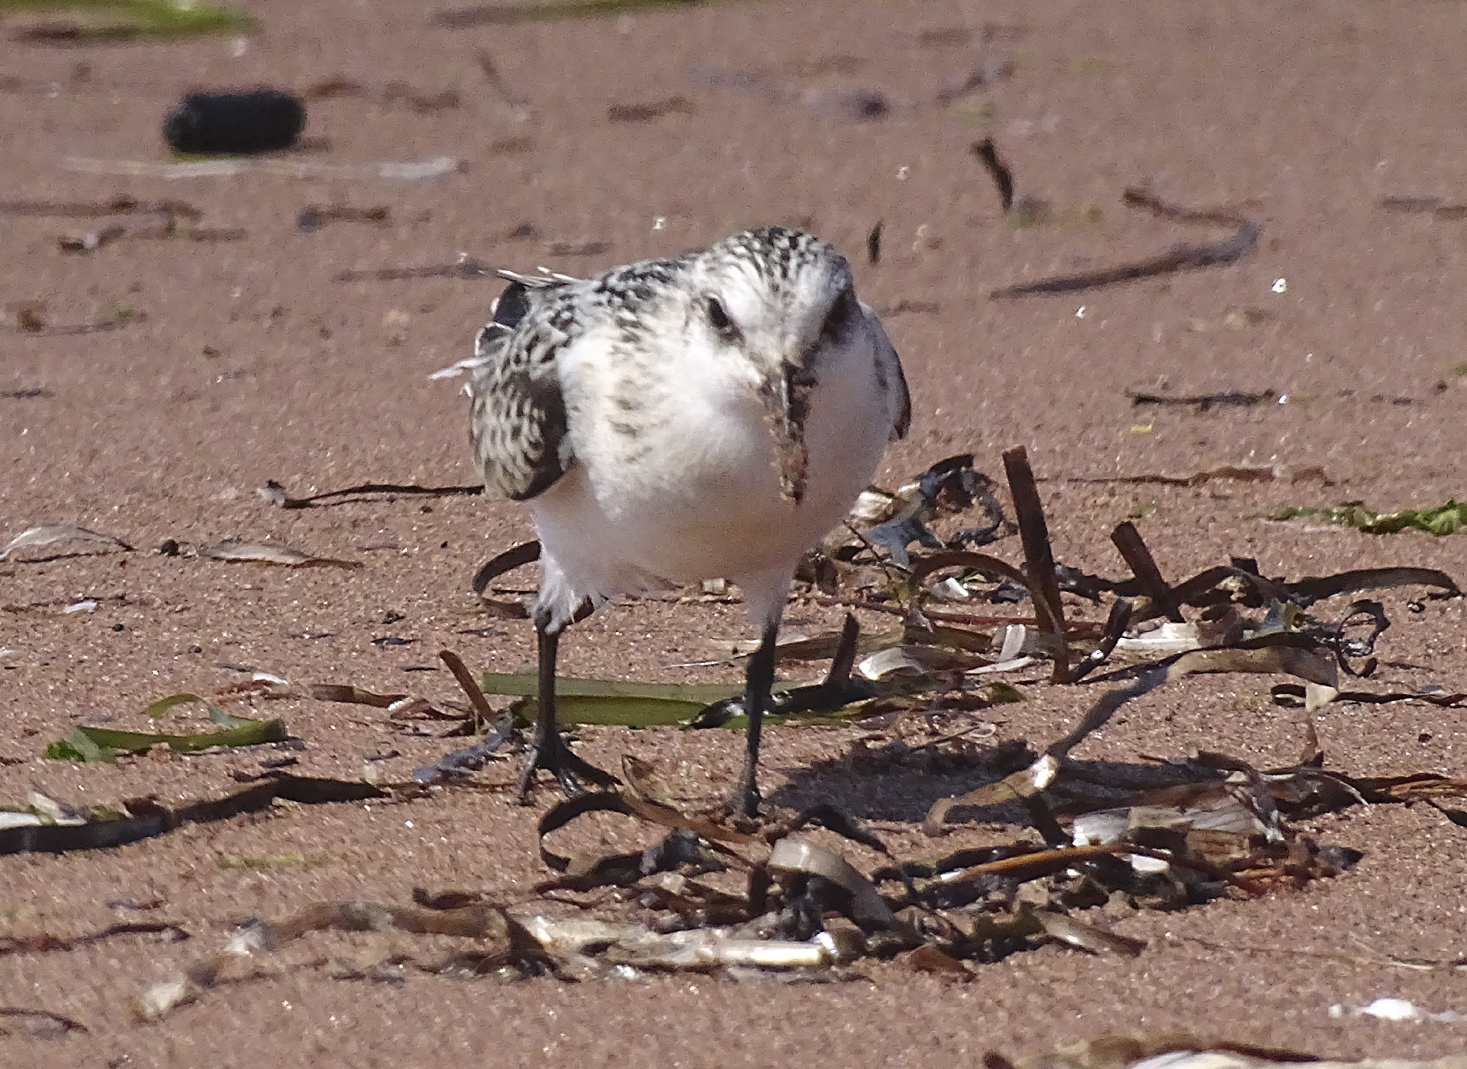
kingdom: Animalia
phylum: Chordata
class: Aves
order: Charadriiformes
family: Scolopacidae
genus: Calidris
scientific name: Calidris alba
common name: Sanderling
